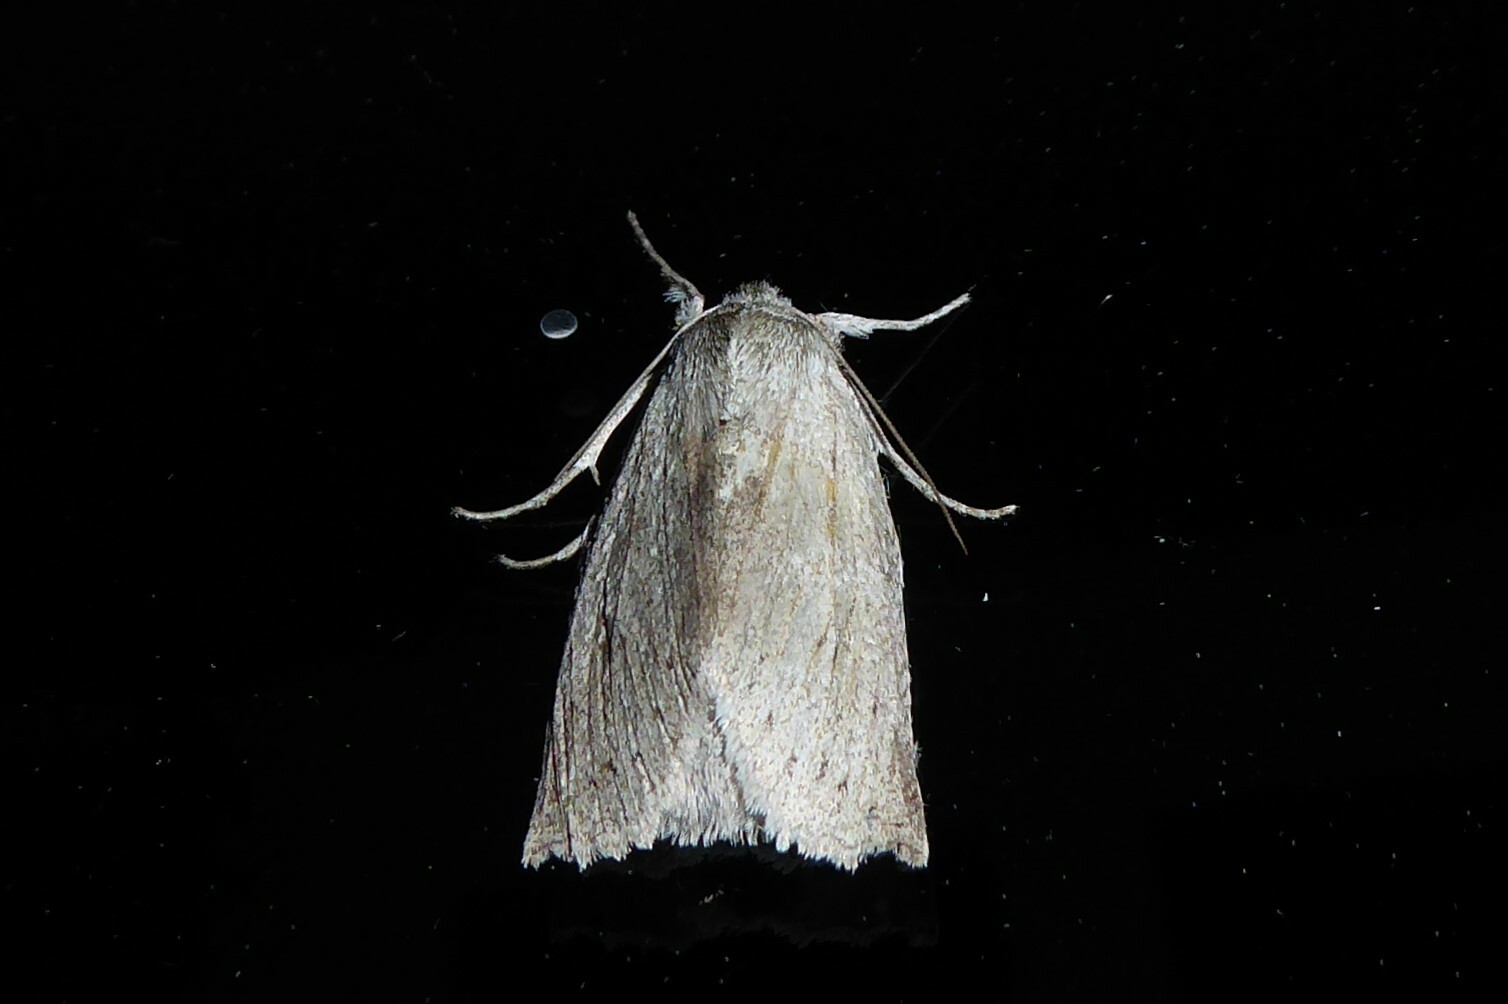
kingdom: Animalia
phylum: Arthropoda
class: Insecta
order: Lepidoptera
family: Geometridae
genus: Declana
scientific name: Declana leptomera
